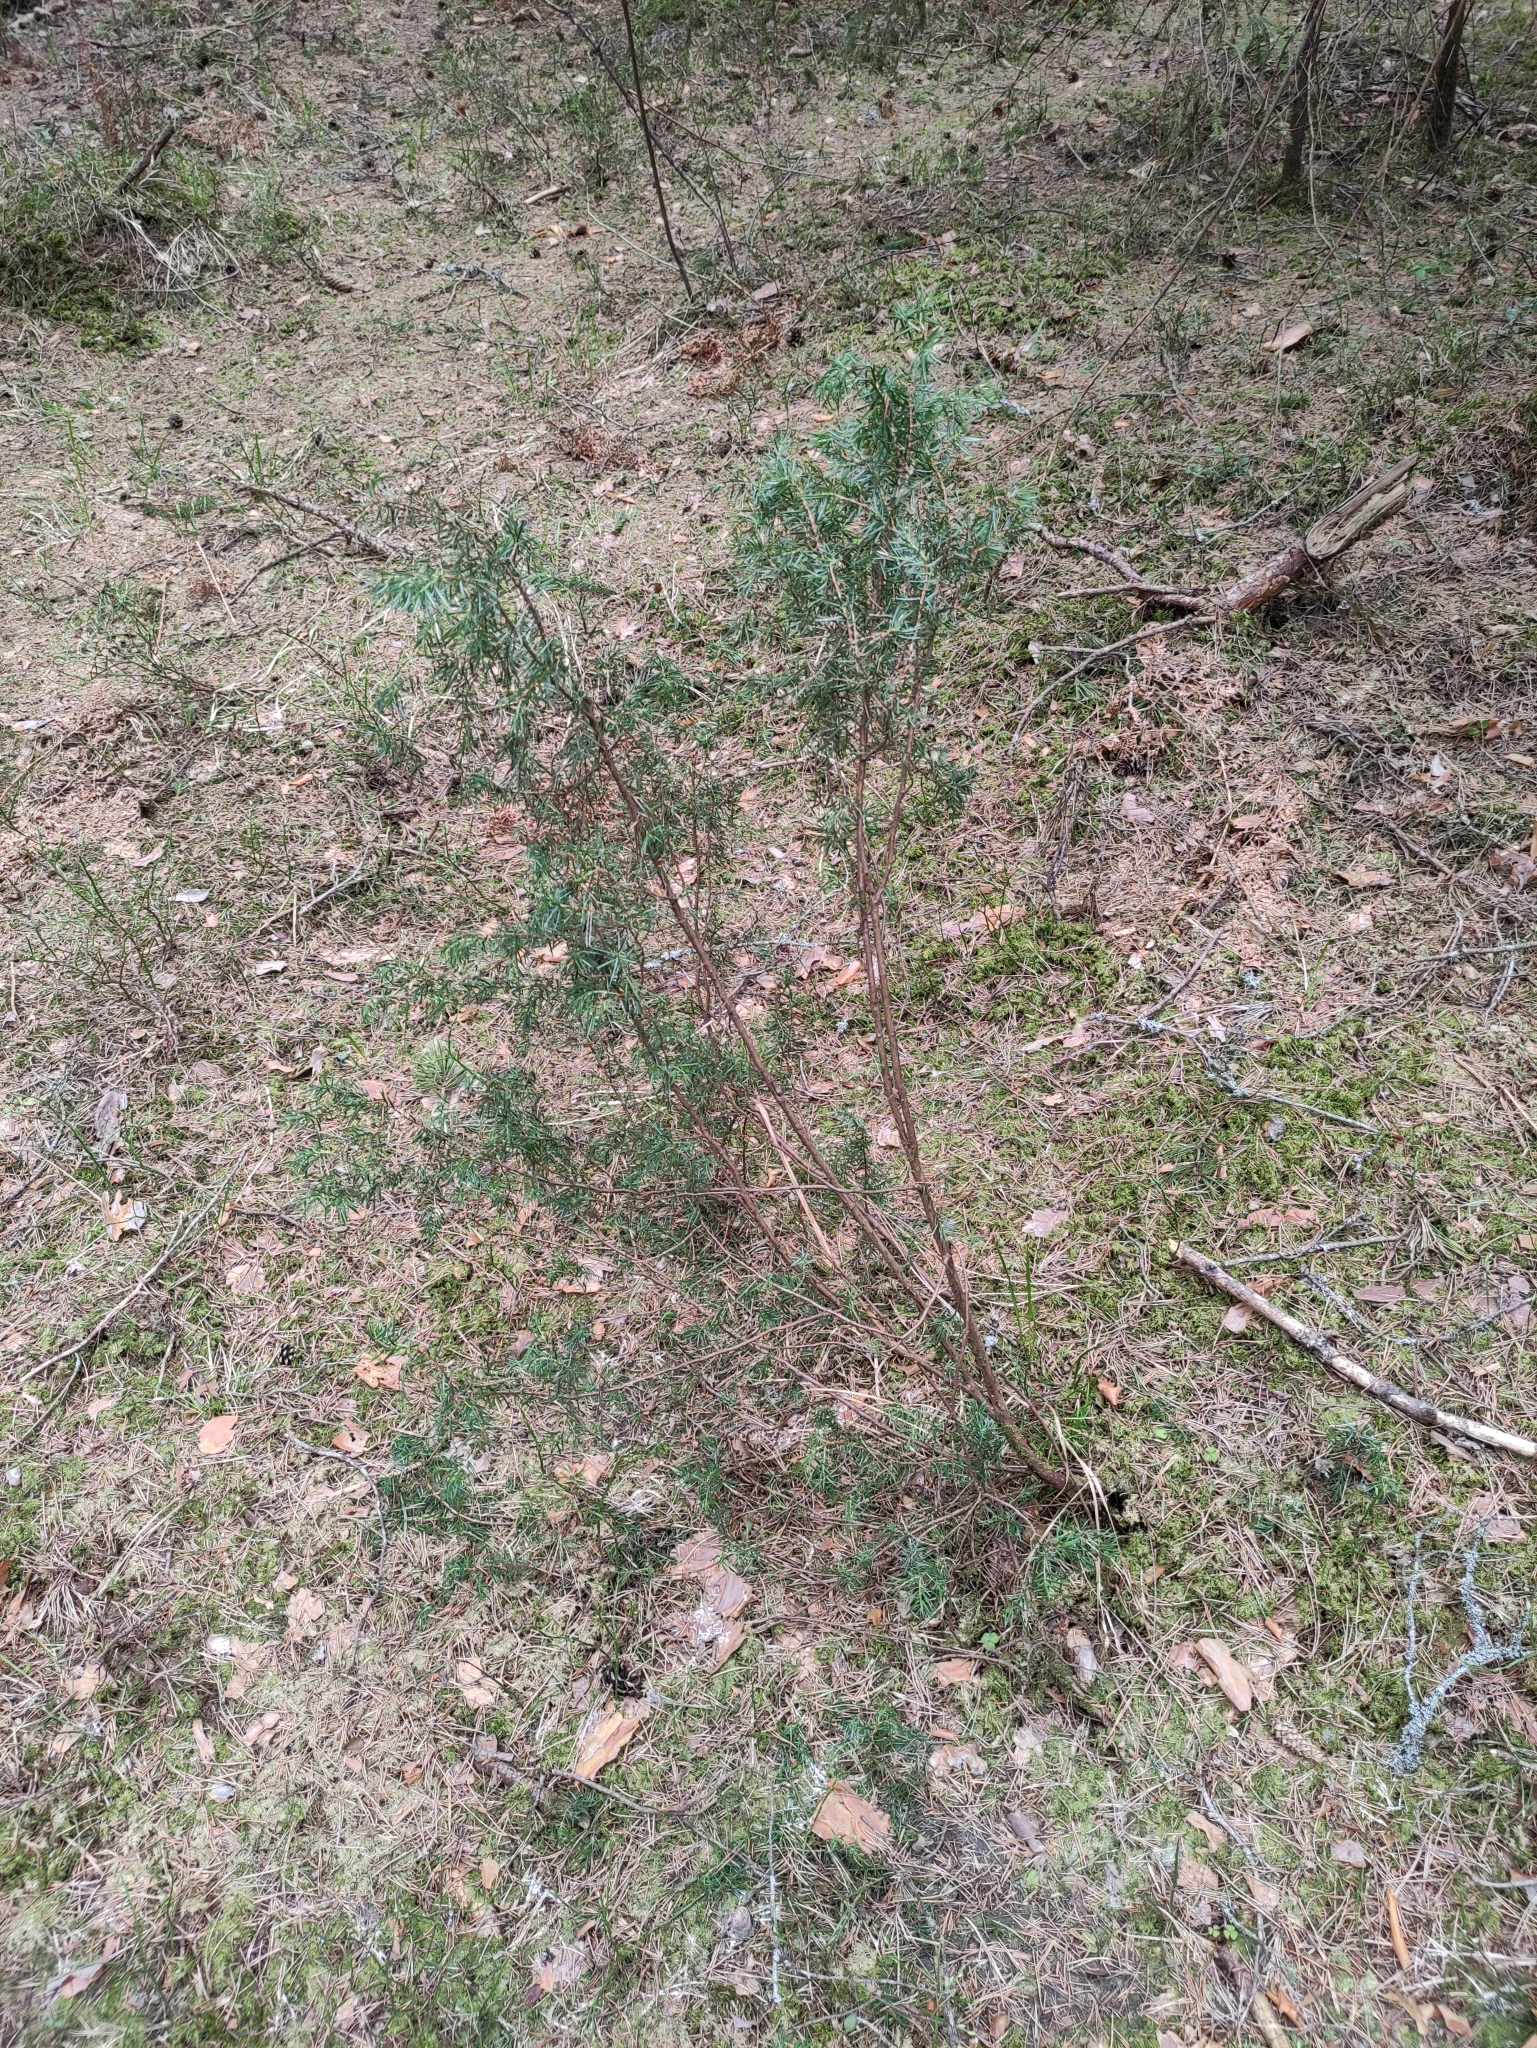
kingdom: Plantae
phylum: Tracheophyta
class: Pinopsida
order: Pinales
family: Cupressaceae
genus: Juniperus
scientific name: Juniperus communis
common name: Common juniper
